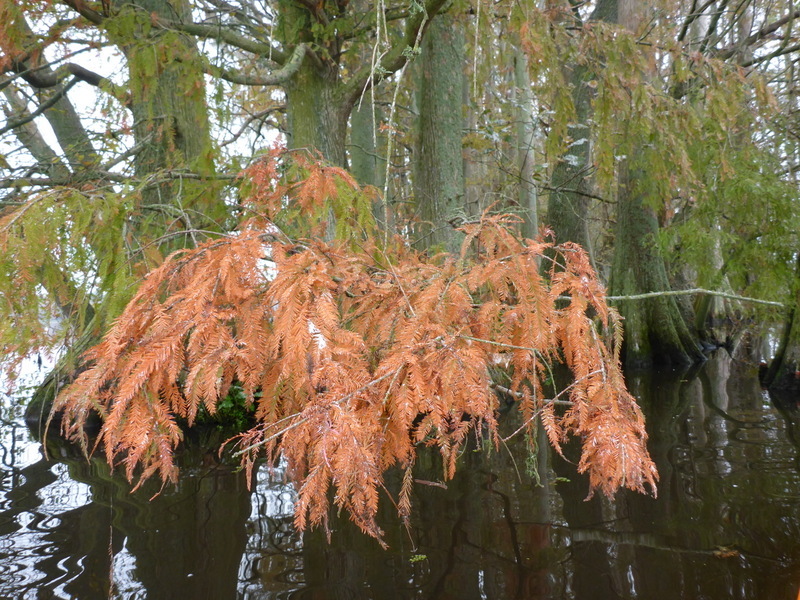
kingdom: Plantae
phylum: Tracheophyta
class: Pinopsida
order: Pinales
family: Cupressaceae
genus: Taxodium
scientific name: Taxodium distichum
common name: Bald cypress
